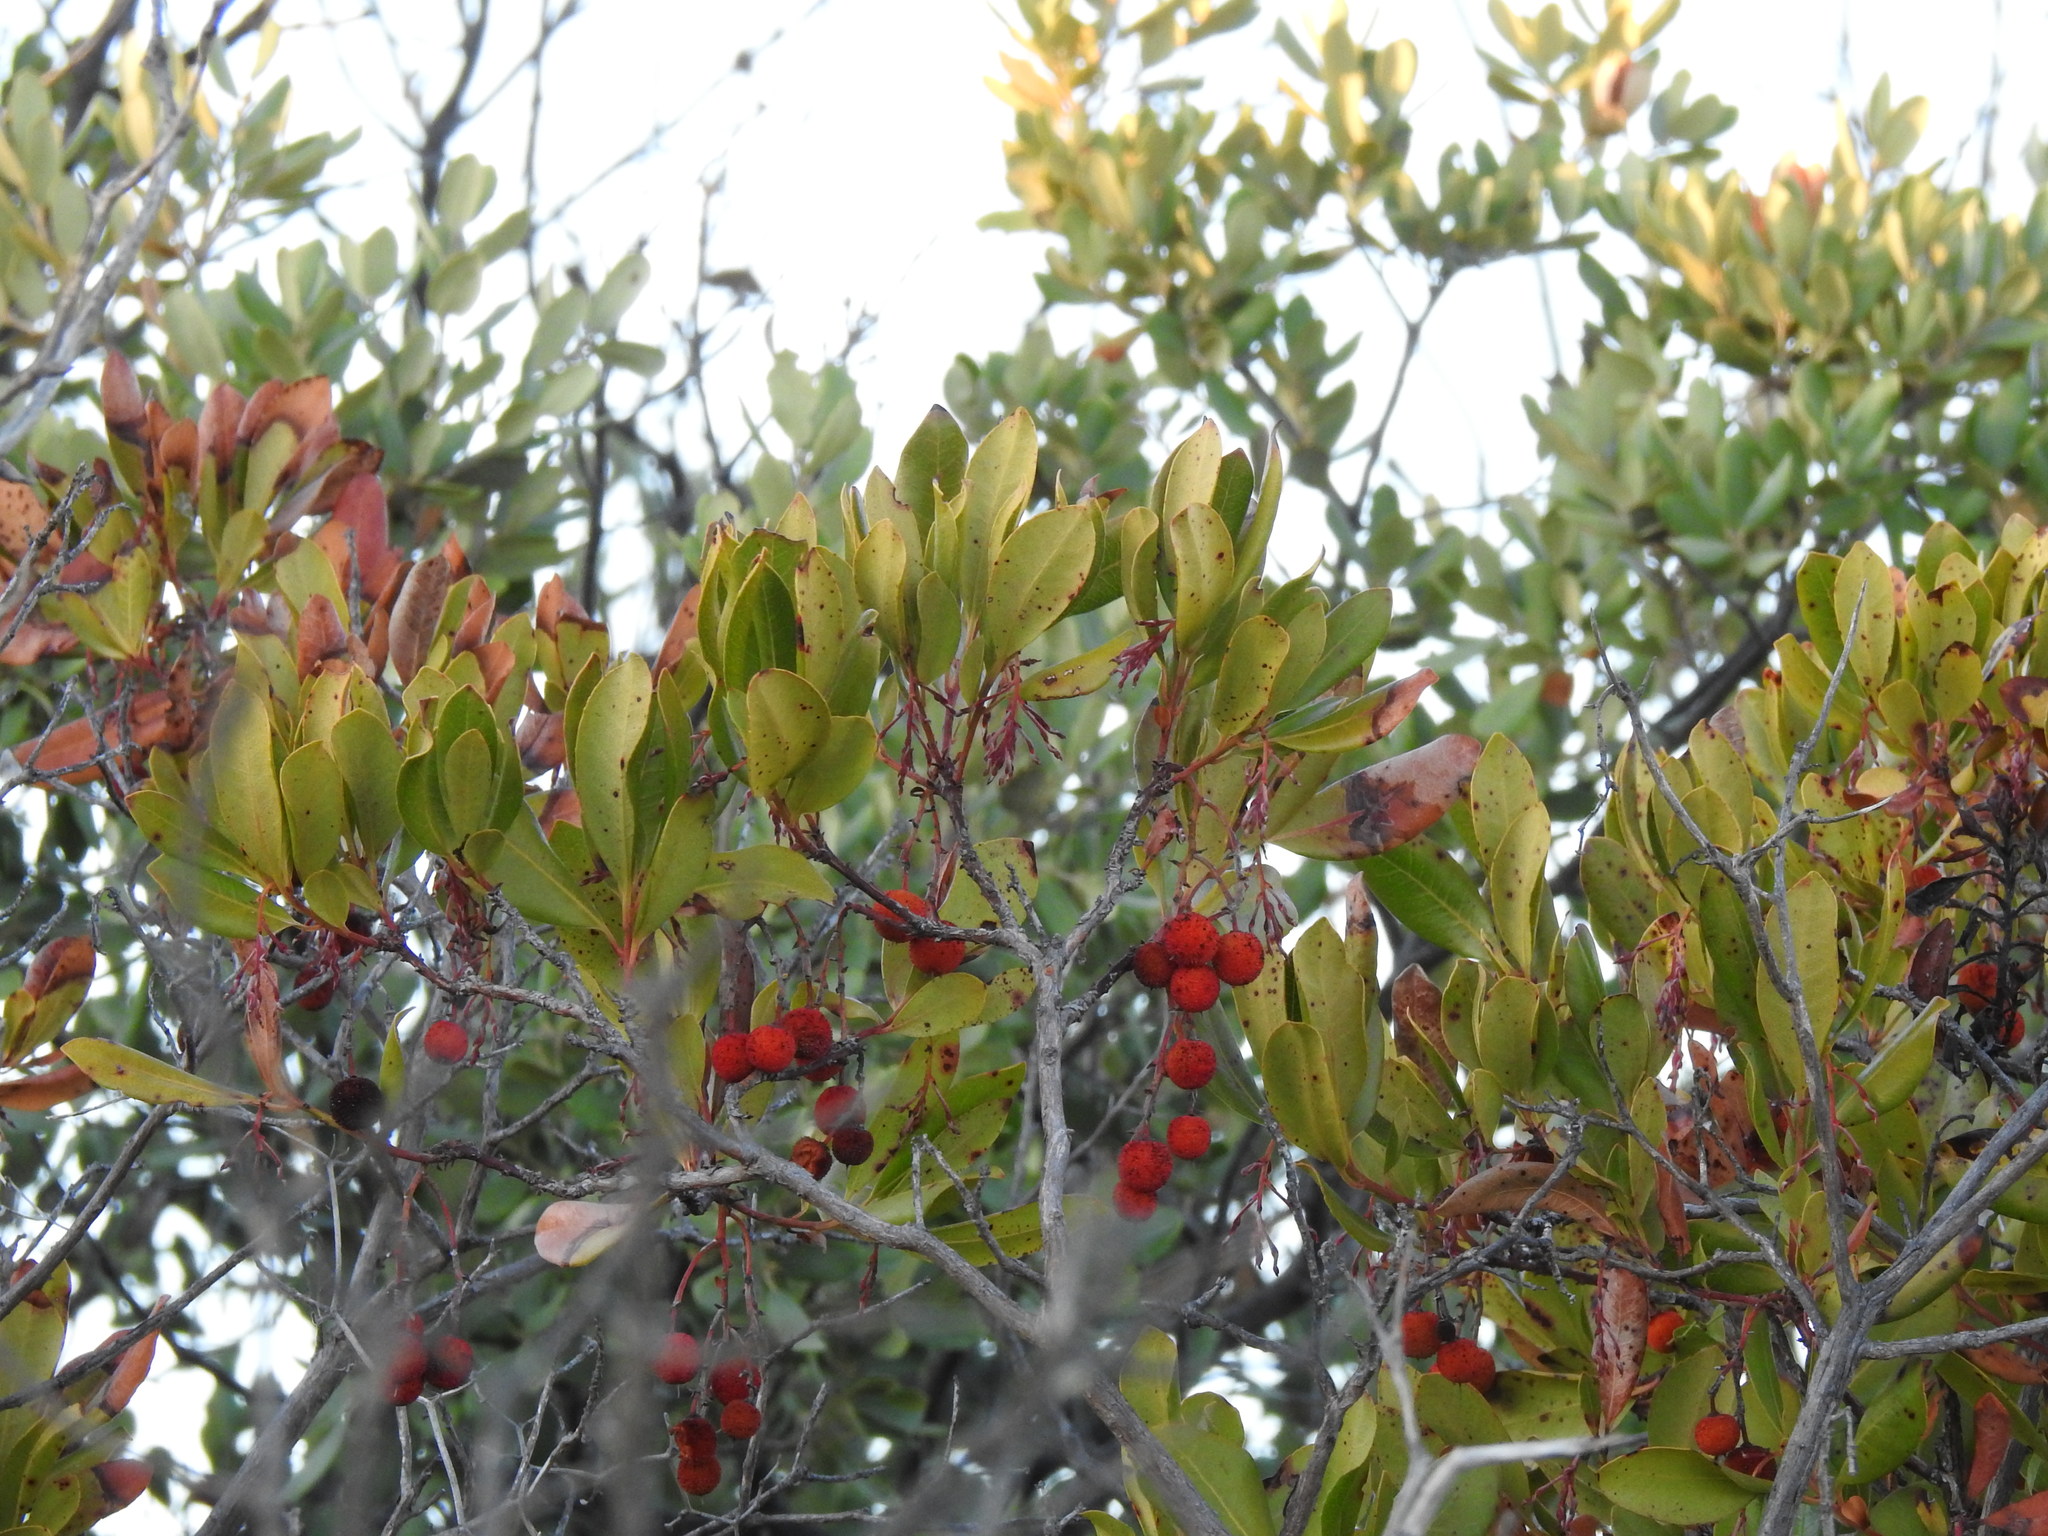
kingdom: Plantae
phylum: Tracheophyta
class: Magnoliopsida
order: Ericales
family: Ericaceae
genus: Arbutus
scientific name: Arbutus unedo
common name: Strawberry-tree
